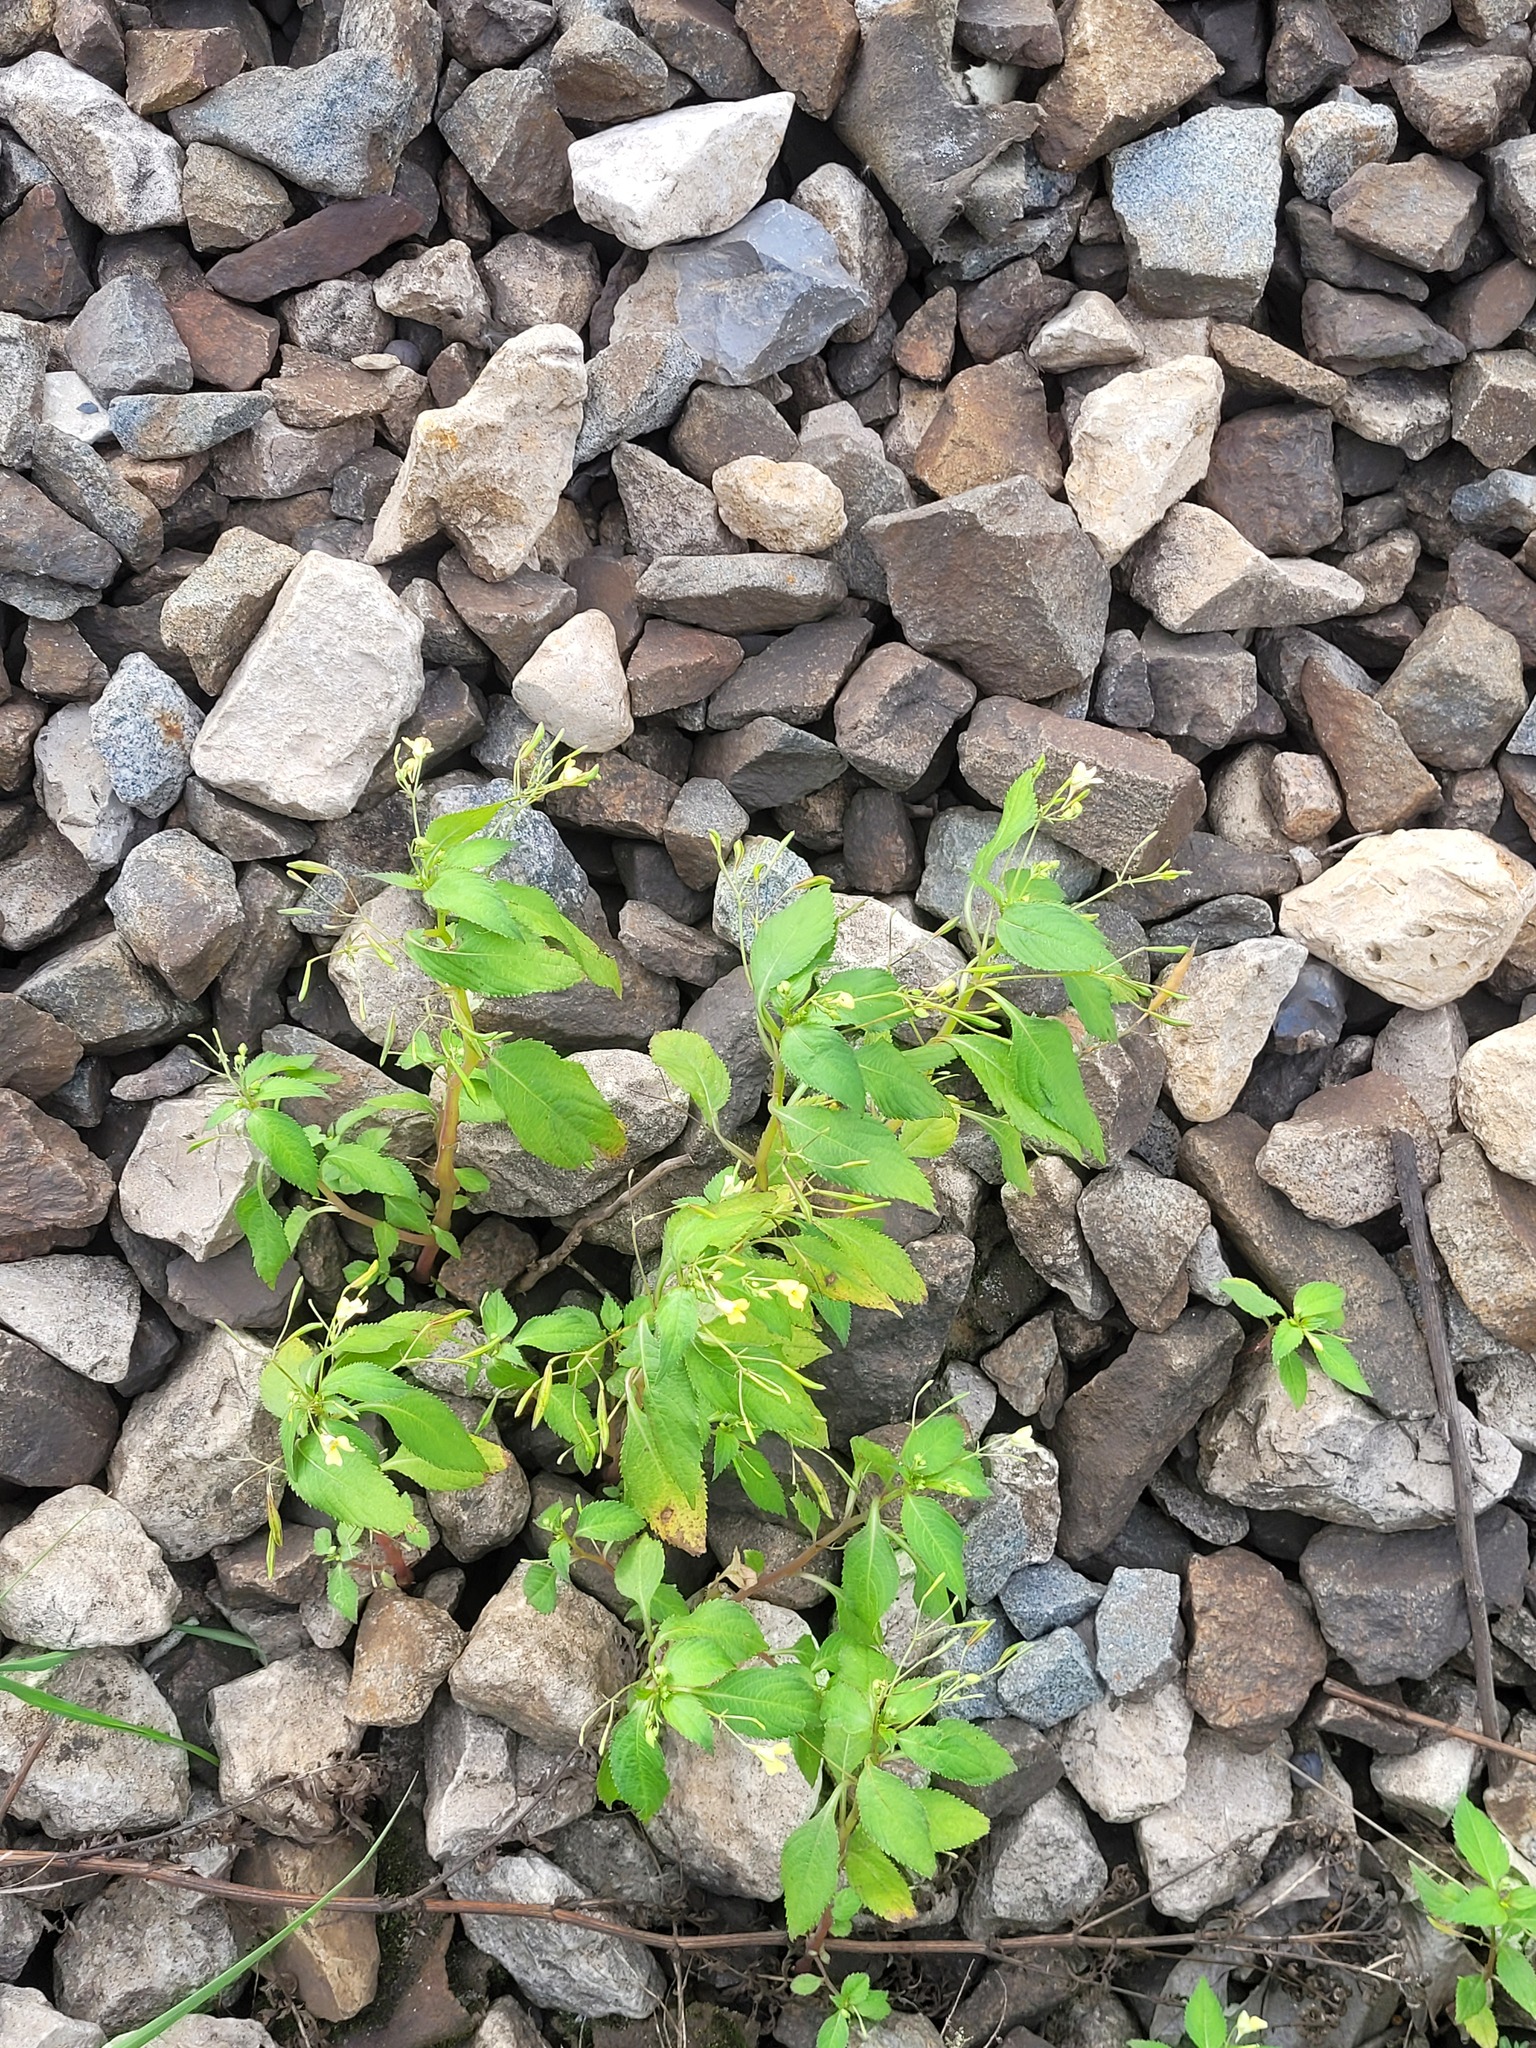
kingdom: Plantae
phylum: Tracheophyta
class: Magnoliopsida
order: Ericales
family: Balsaminaceae
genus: Impatiens
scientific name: Impatiens parviflora
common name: Small balsam
